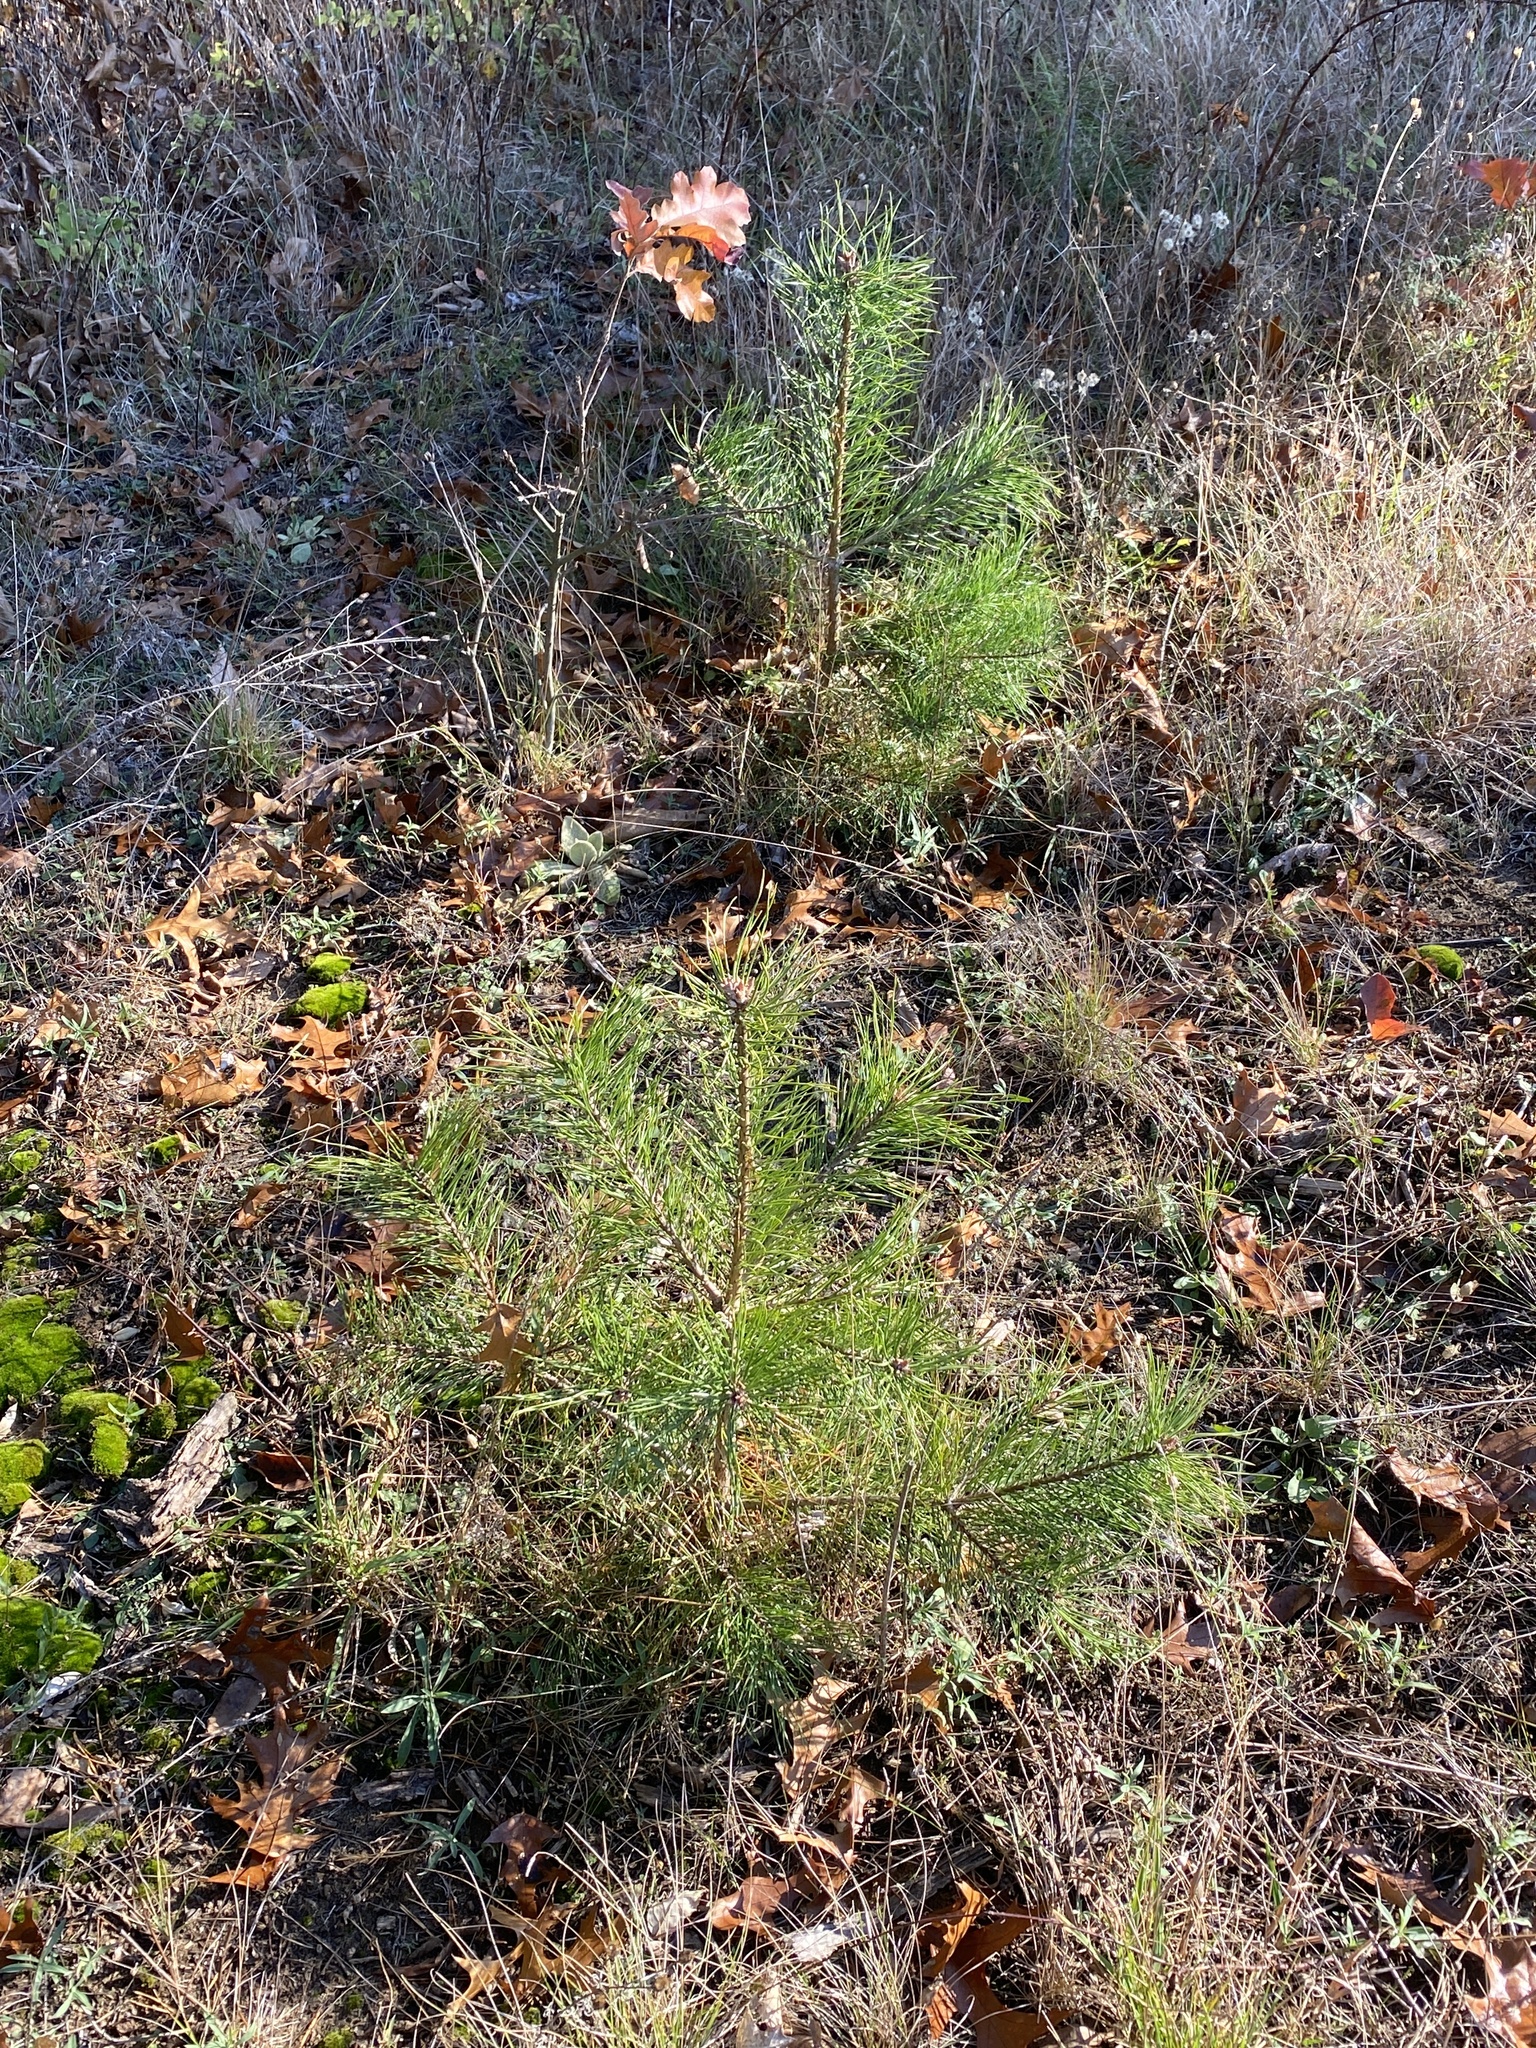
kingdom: Plantae
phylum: Tracheophyta
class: Pinopsida
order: Pinales
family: Pinaceae
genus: Pinus
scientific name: Pinus sylvestris
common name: Scots pine
